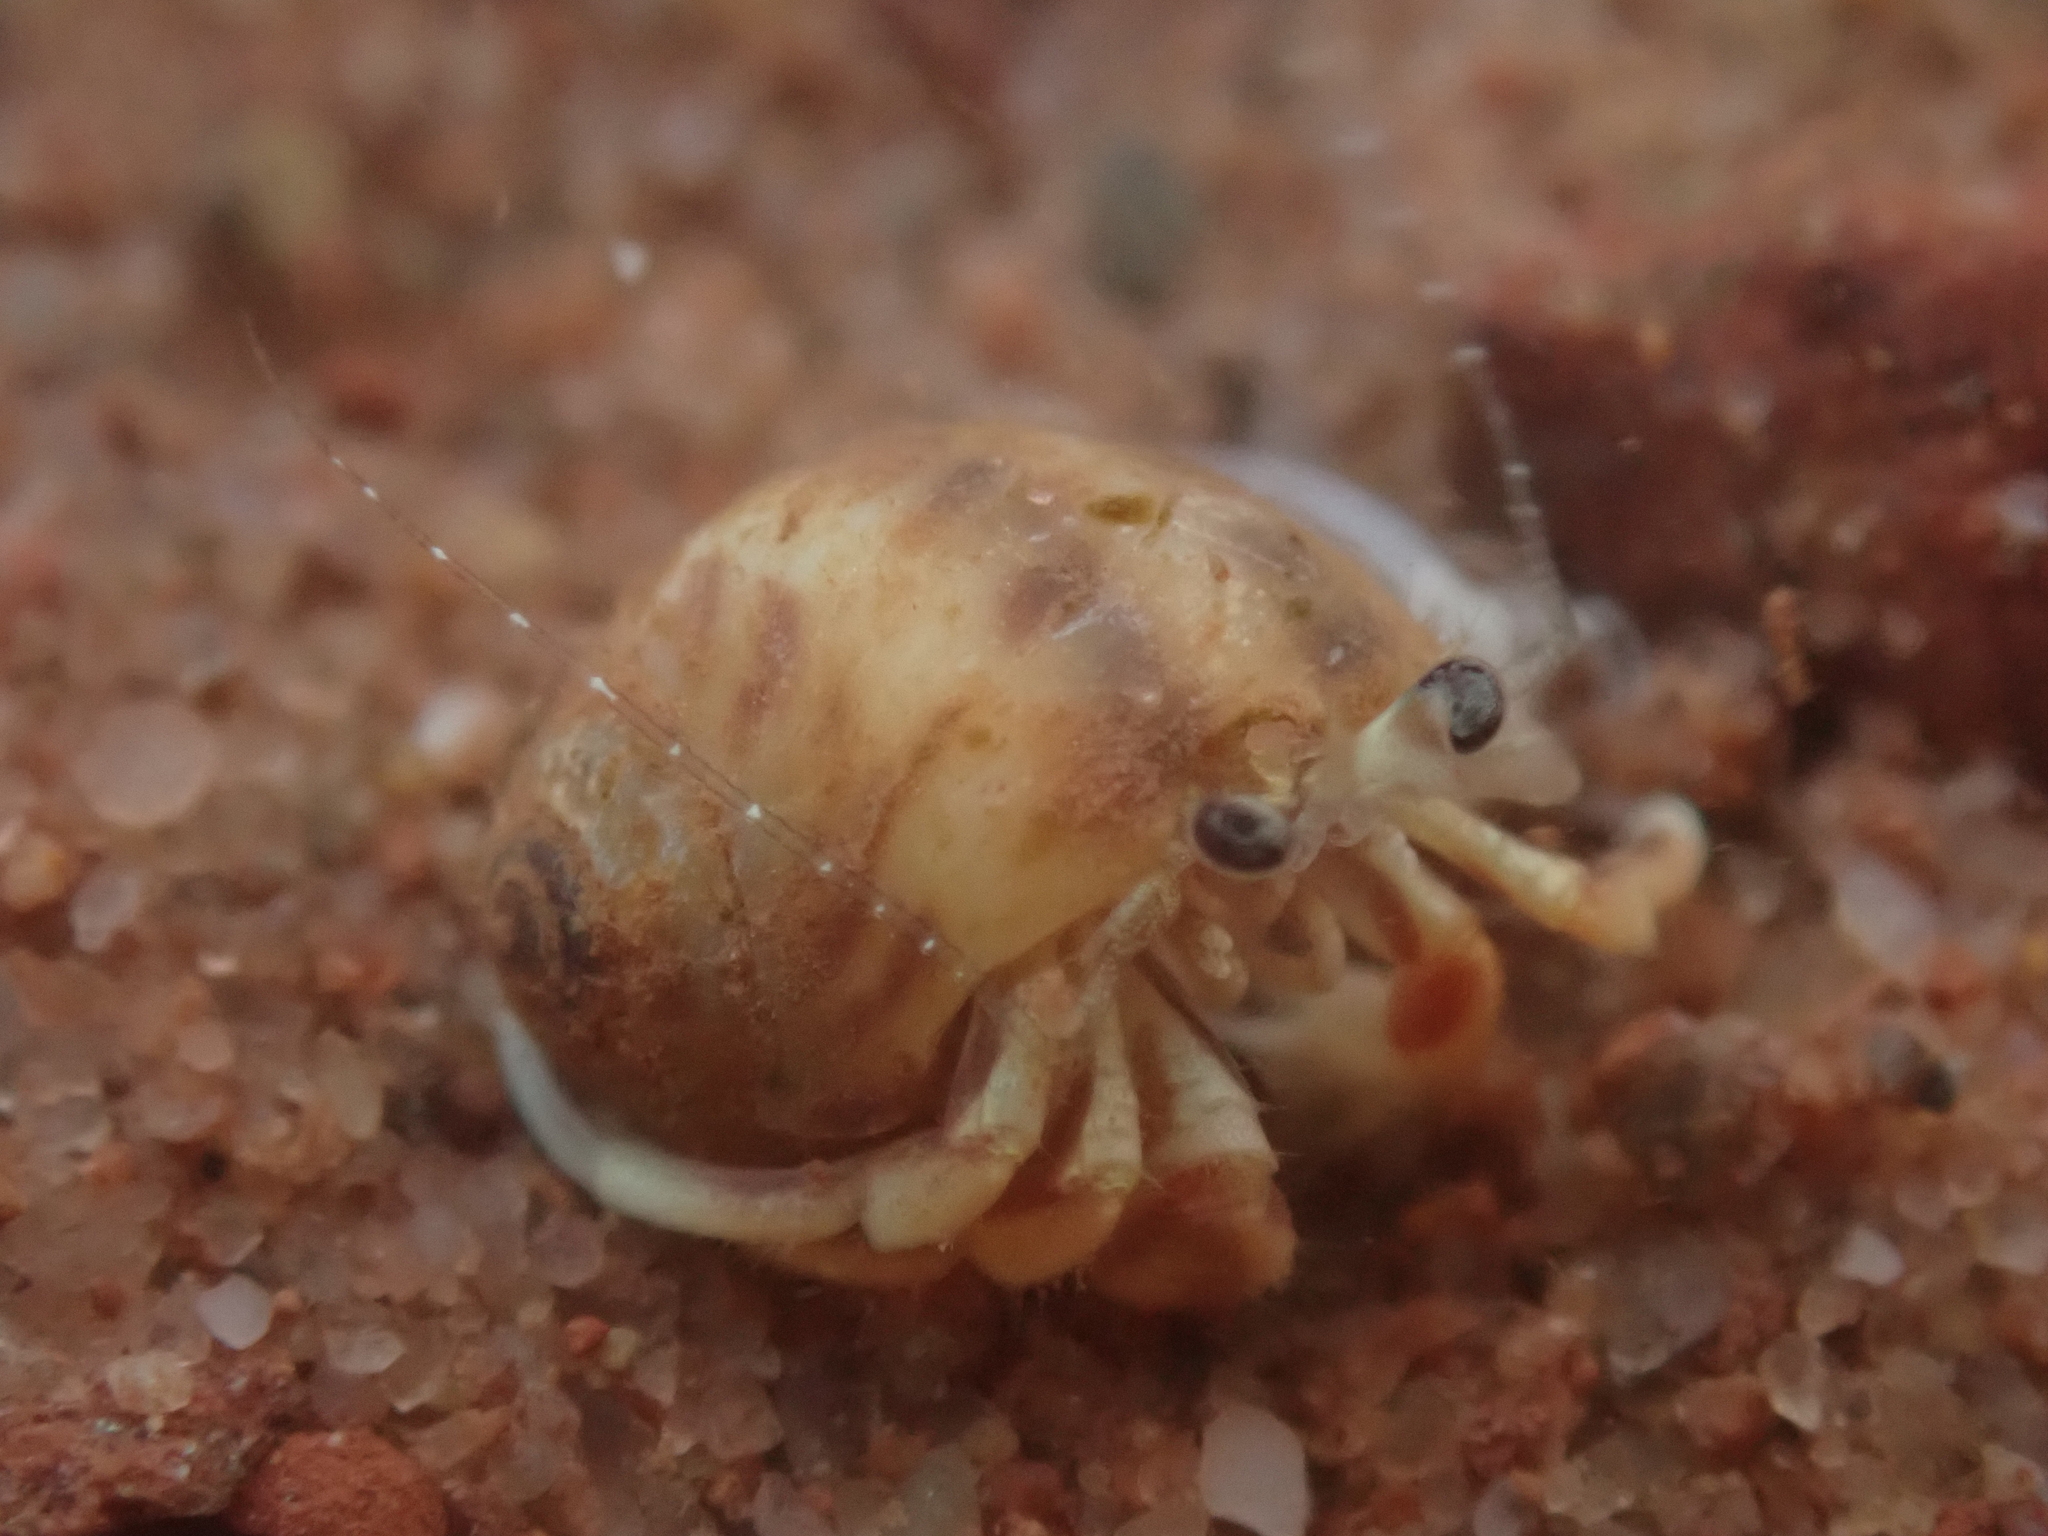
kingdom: Animalia
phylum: Arthropoda
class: Malacostraca
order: Decapoda
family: Paguridae
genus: Pagurus
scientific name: Pagurus longicarpus
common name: Long-armed hermit crab
